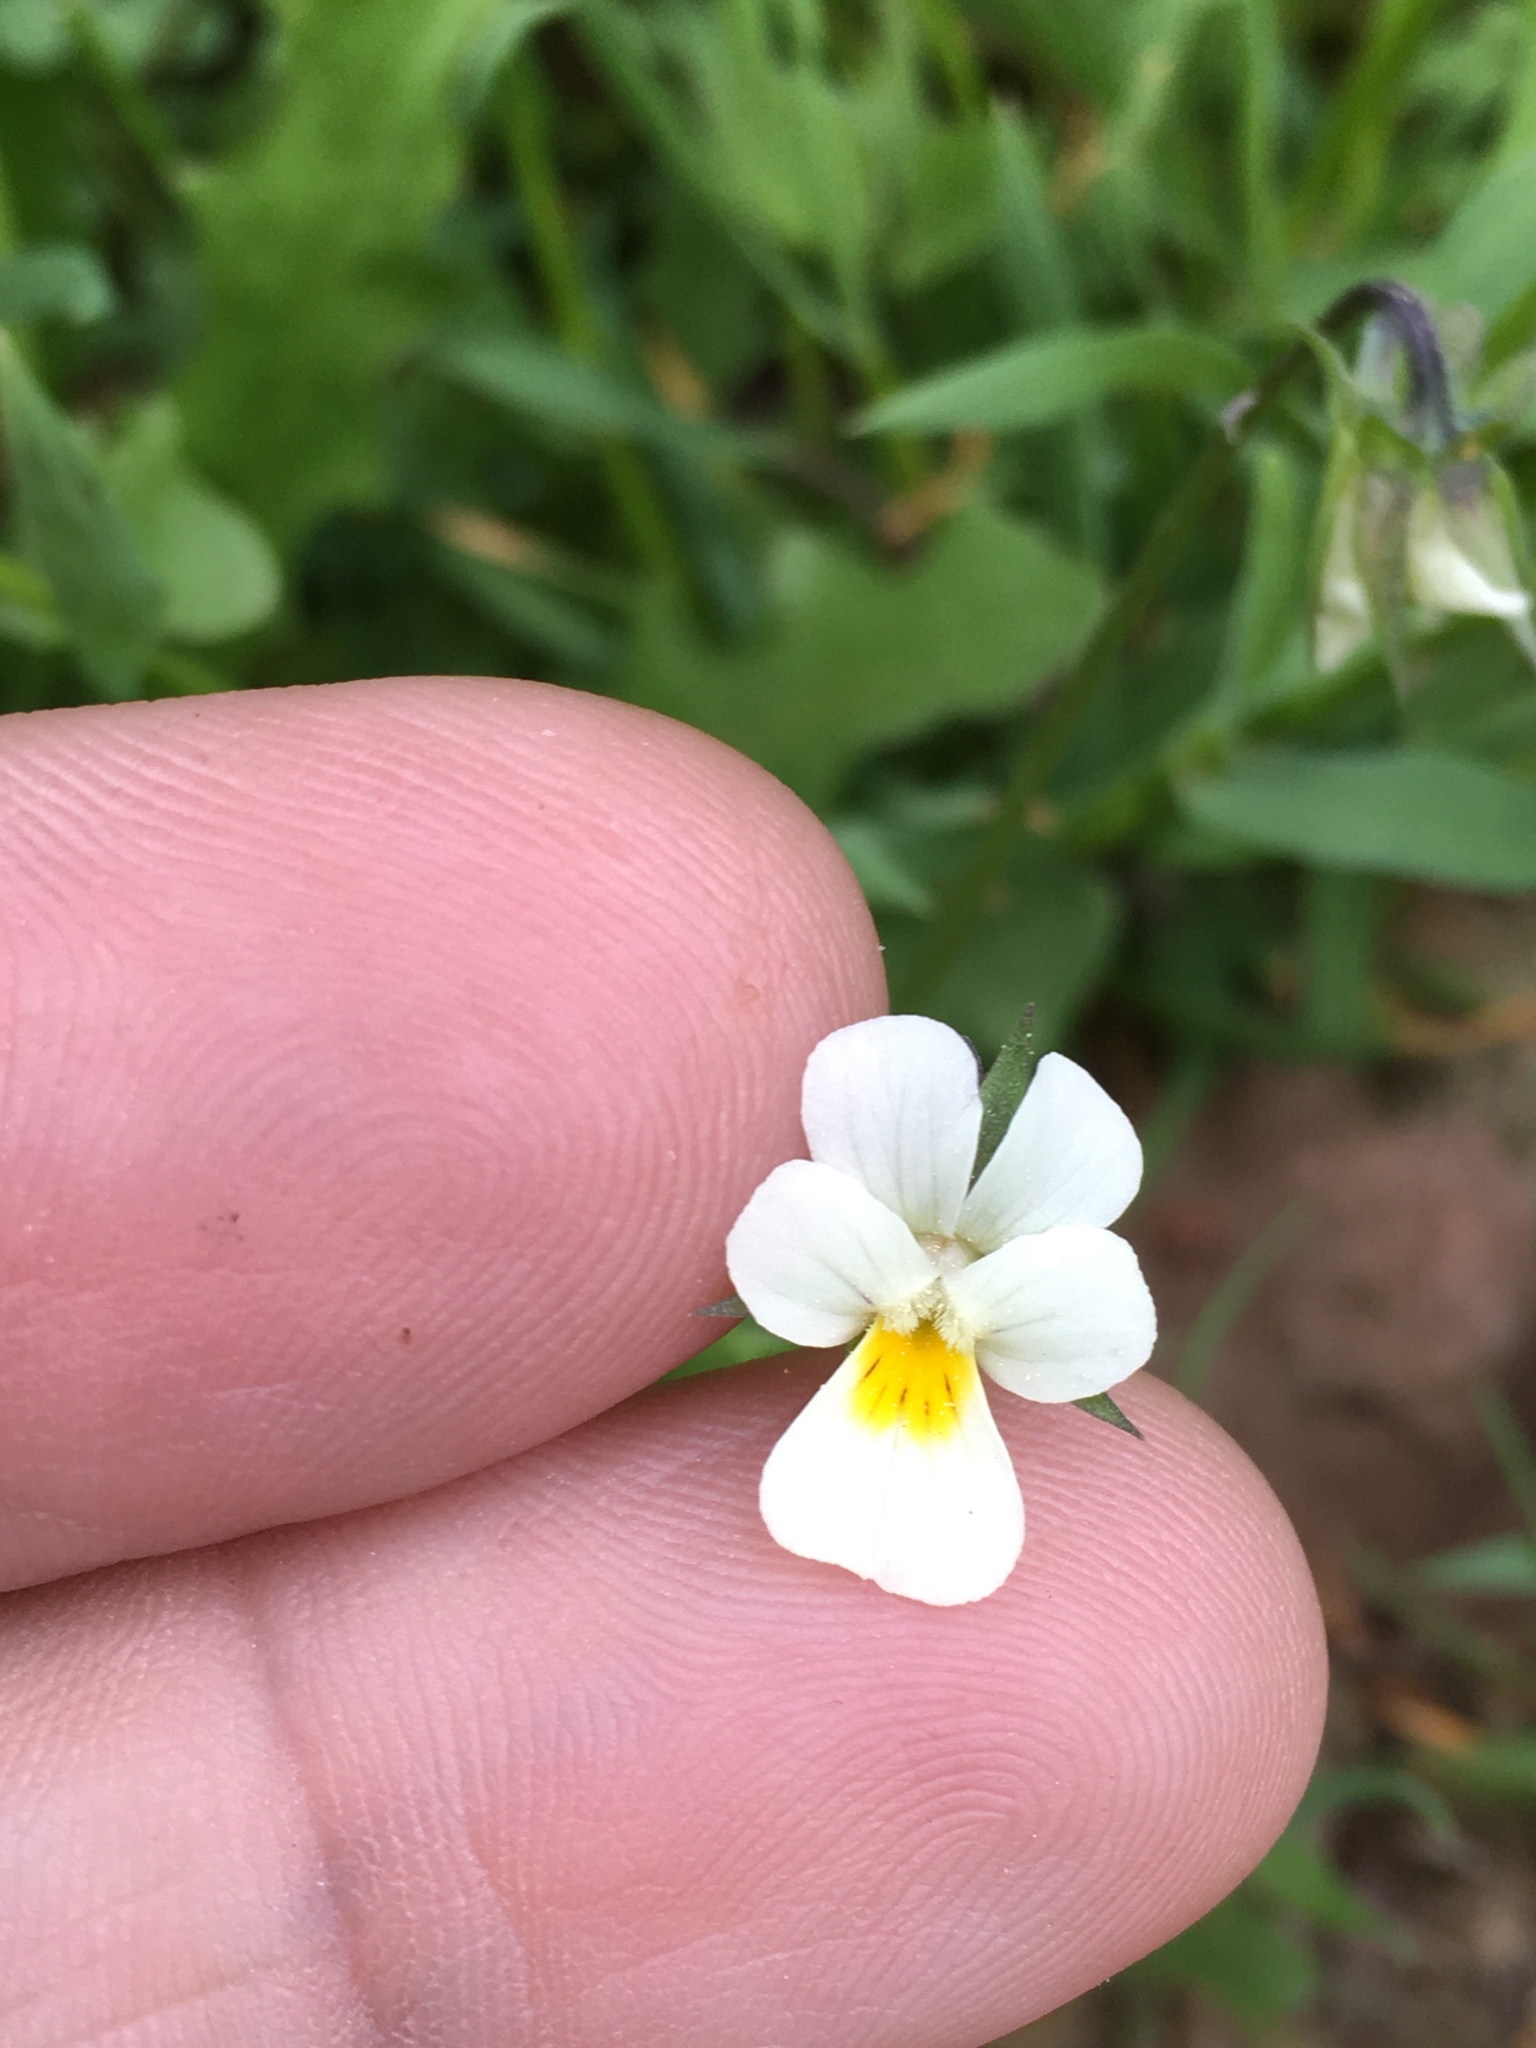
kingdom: Plantae
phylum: Tracheophyta
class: Magnoliopsida
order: Malpighiales
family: Violaceae
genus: Viola
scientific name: Viola arvensis
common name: Field pansy
